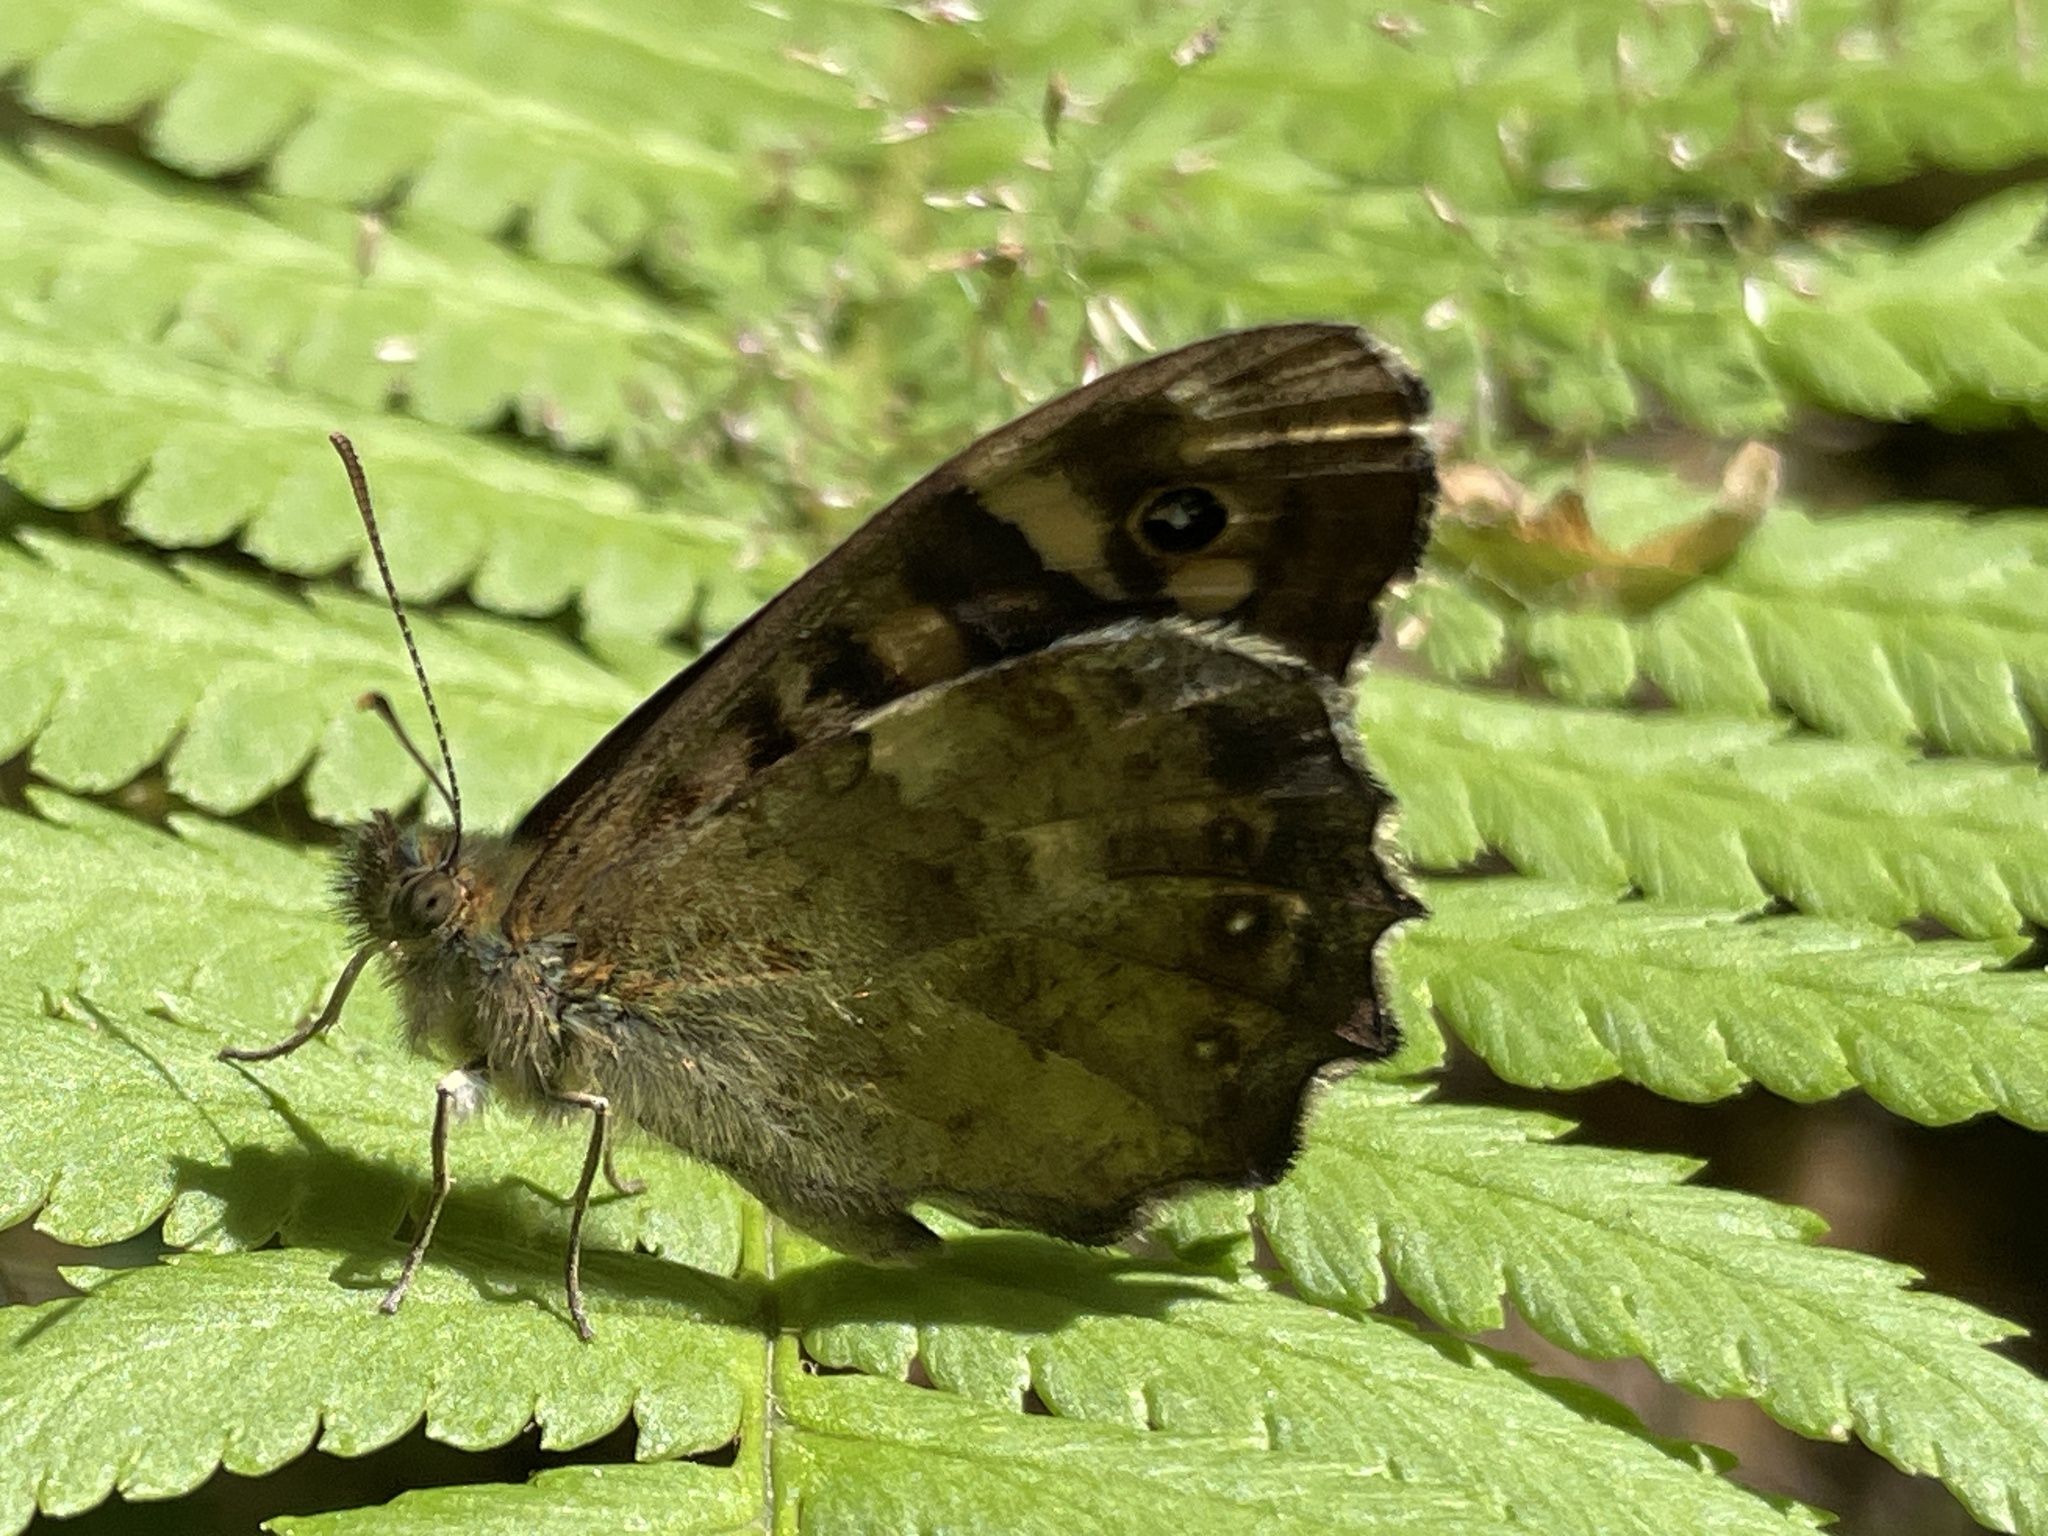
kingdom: Animalia
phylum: Arthropoda
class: Insecta
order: Lepidoptera
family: Nymphalidae
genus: Pararge
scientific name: Pararge aegeria
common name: Speckled wood
